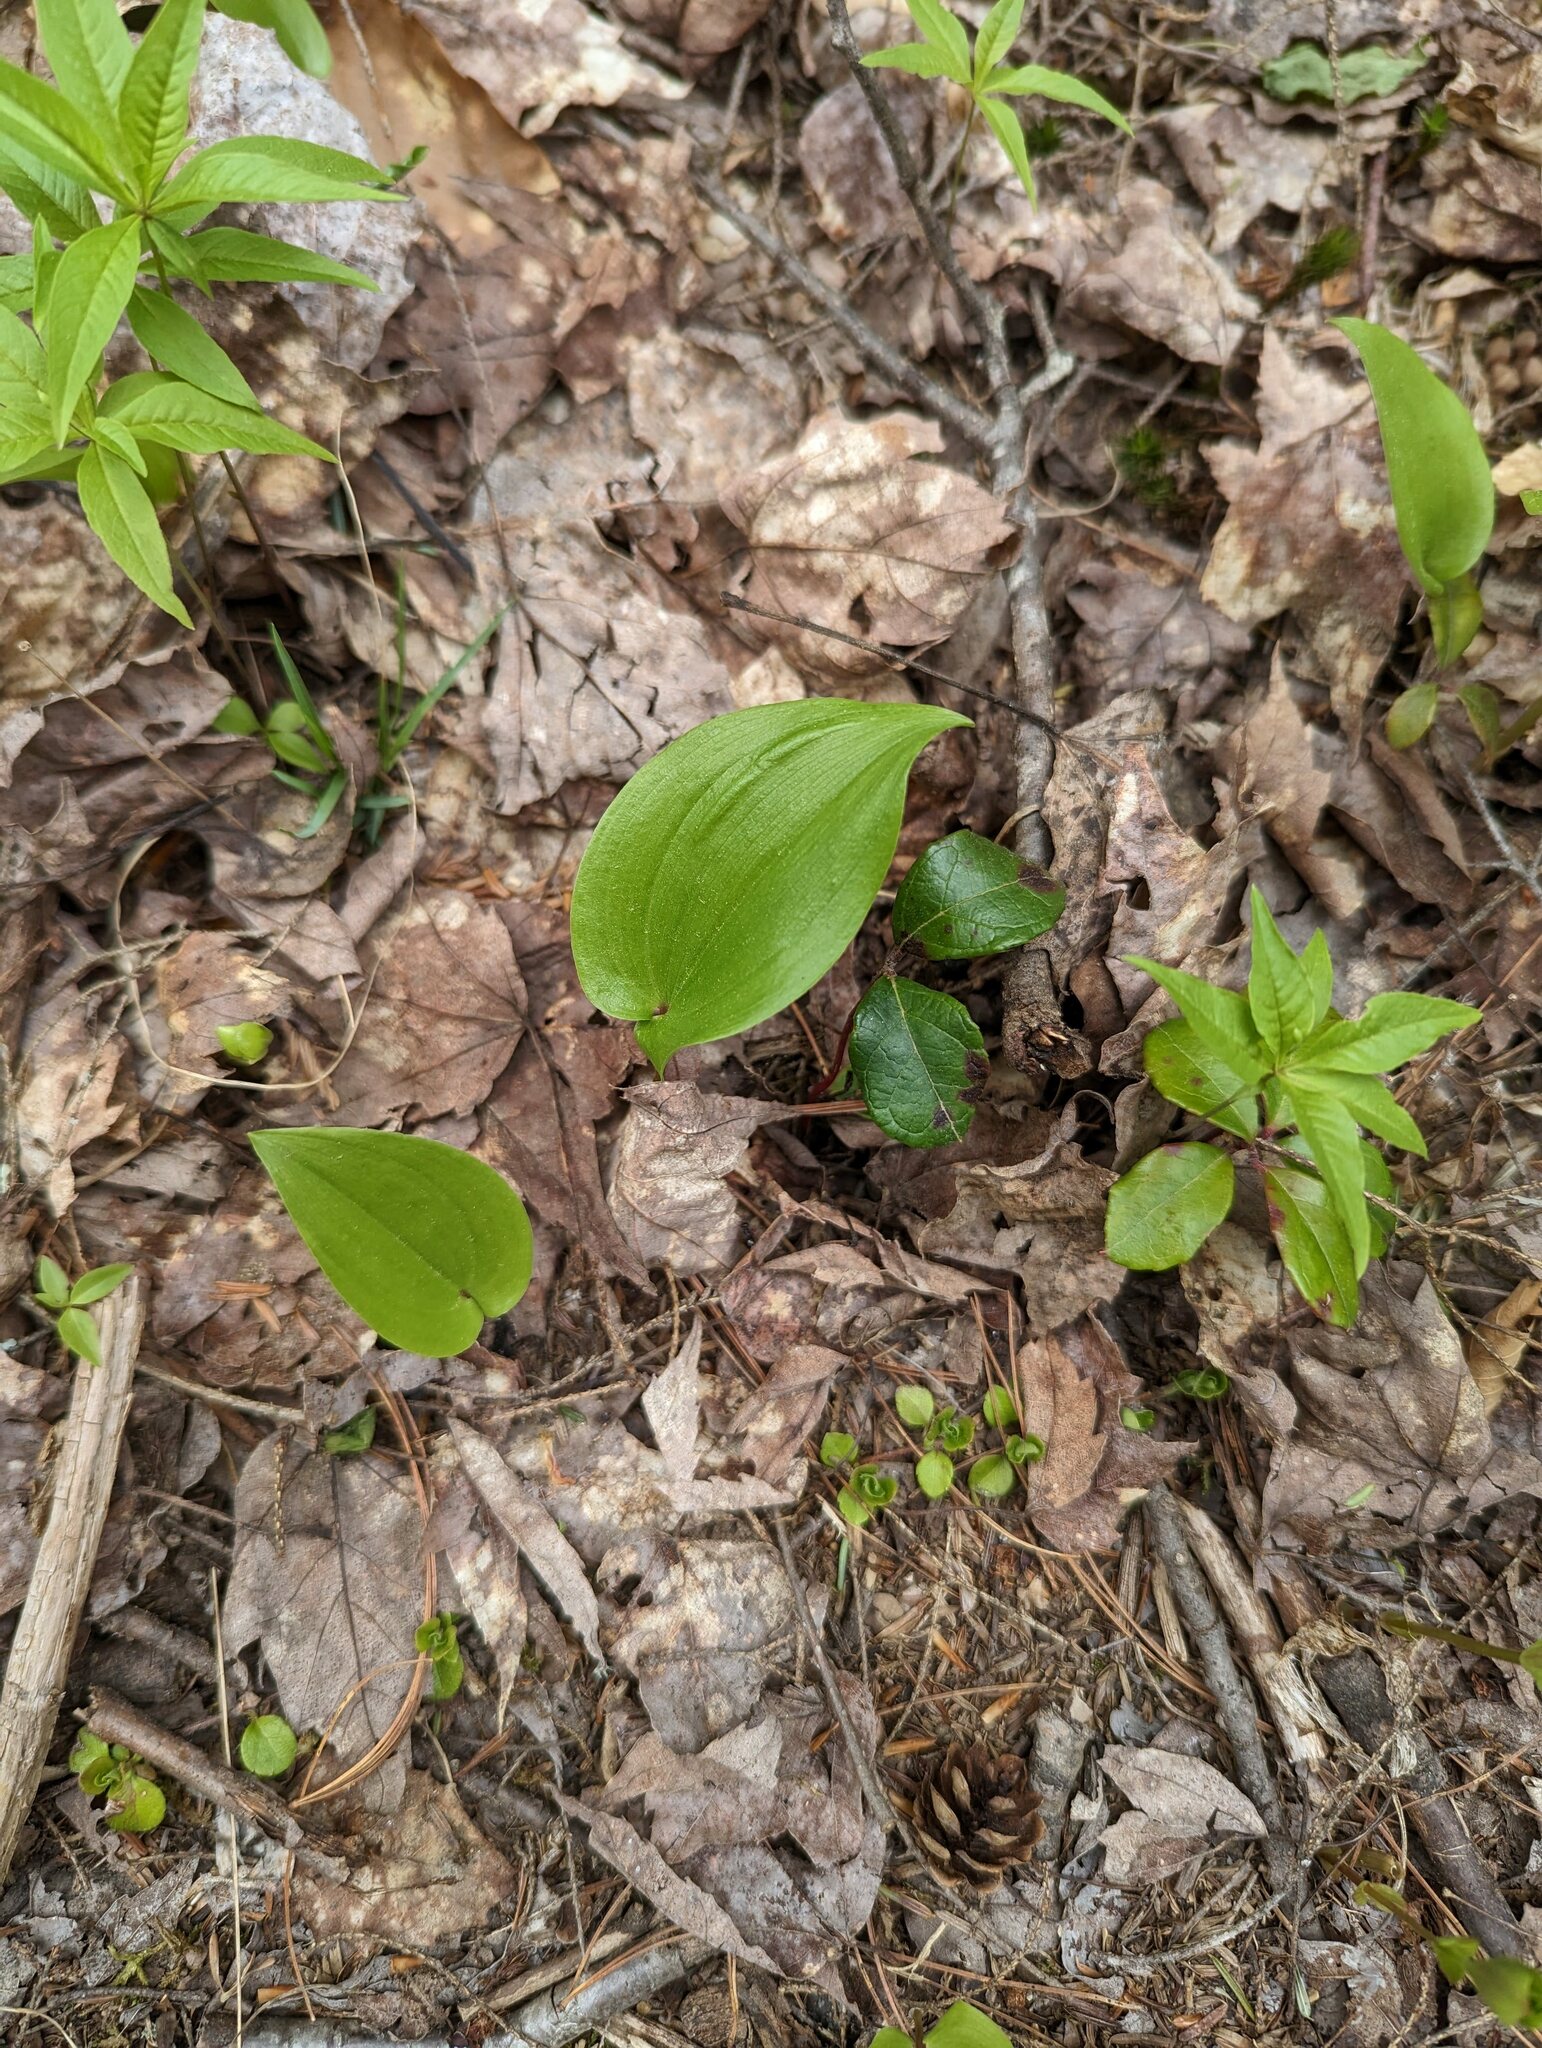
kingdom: Plantae
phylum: Tracheophyta
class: Liliopsida
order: Asparagales
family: Asparagaceae
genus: Maianthemum
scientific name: Maianthemum canadense
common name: False lily-of-the-valley
